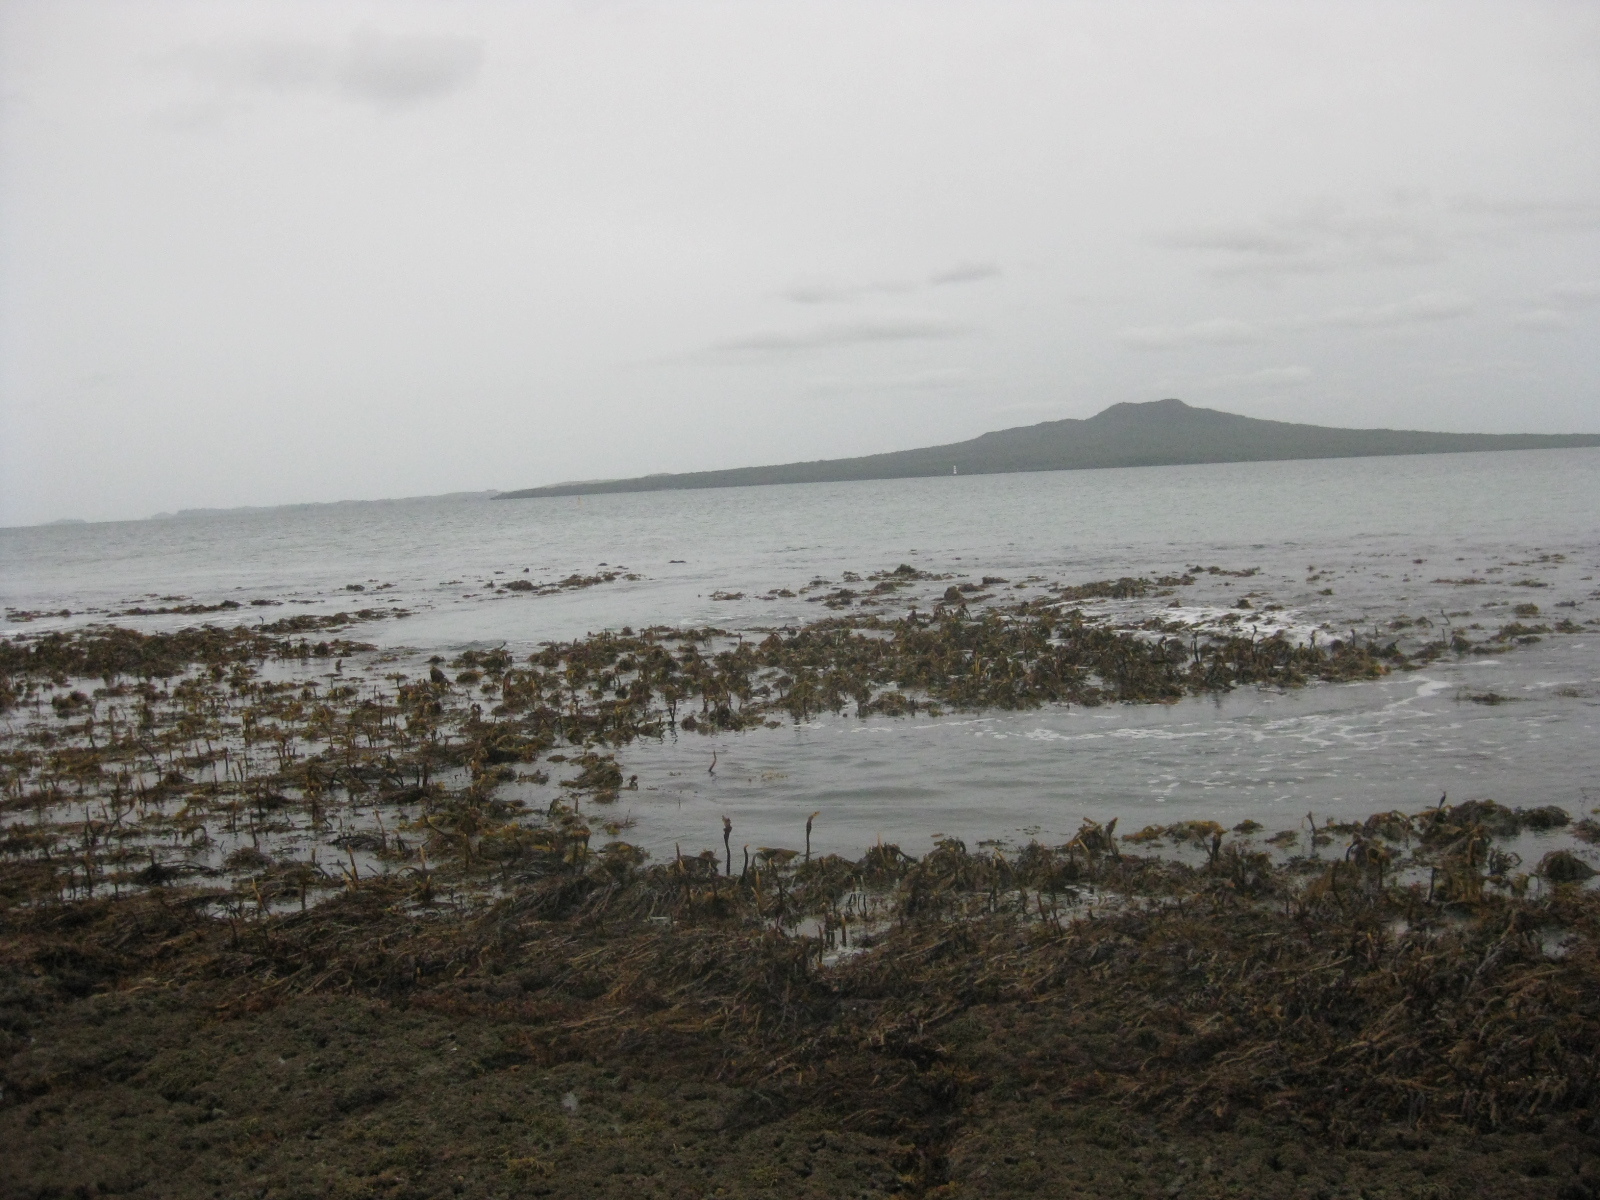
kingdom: Chromista
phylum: Ochrophyta
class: Phaeophyceae
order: Laminariales
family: Lessoniaceae
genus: Ecklonia
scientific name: Ecklonia radiata
